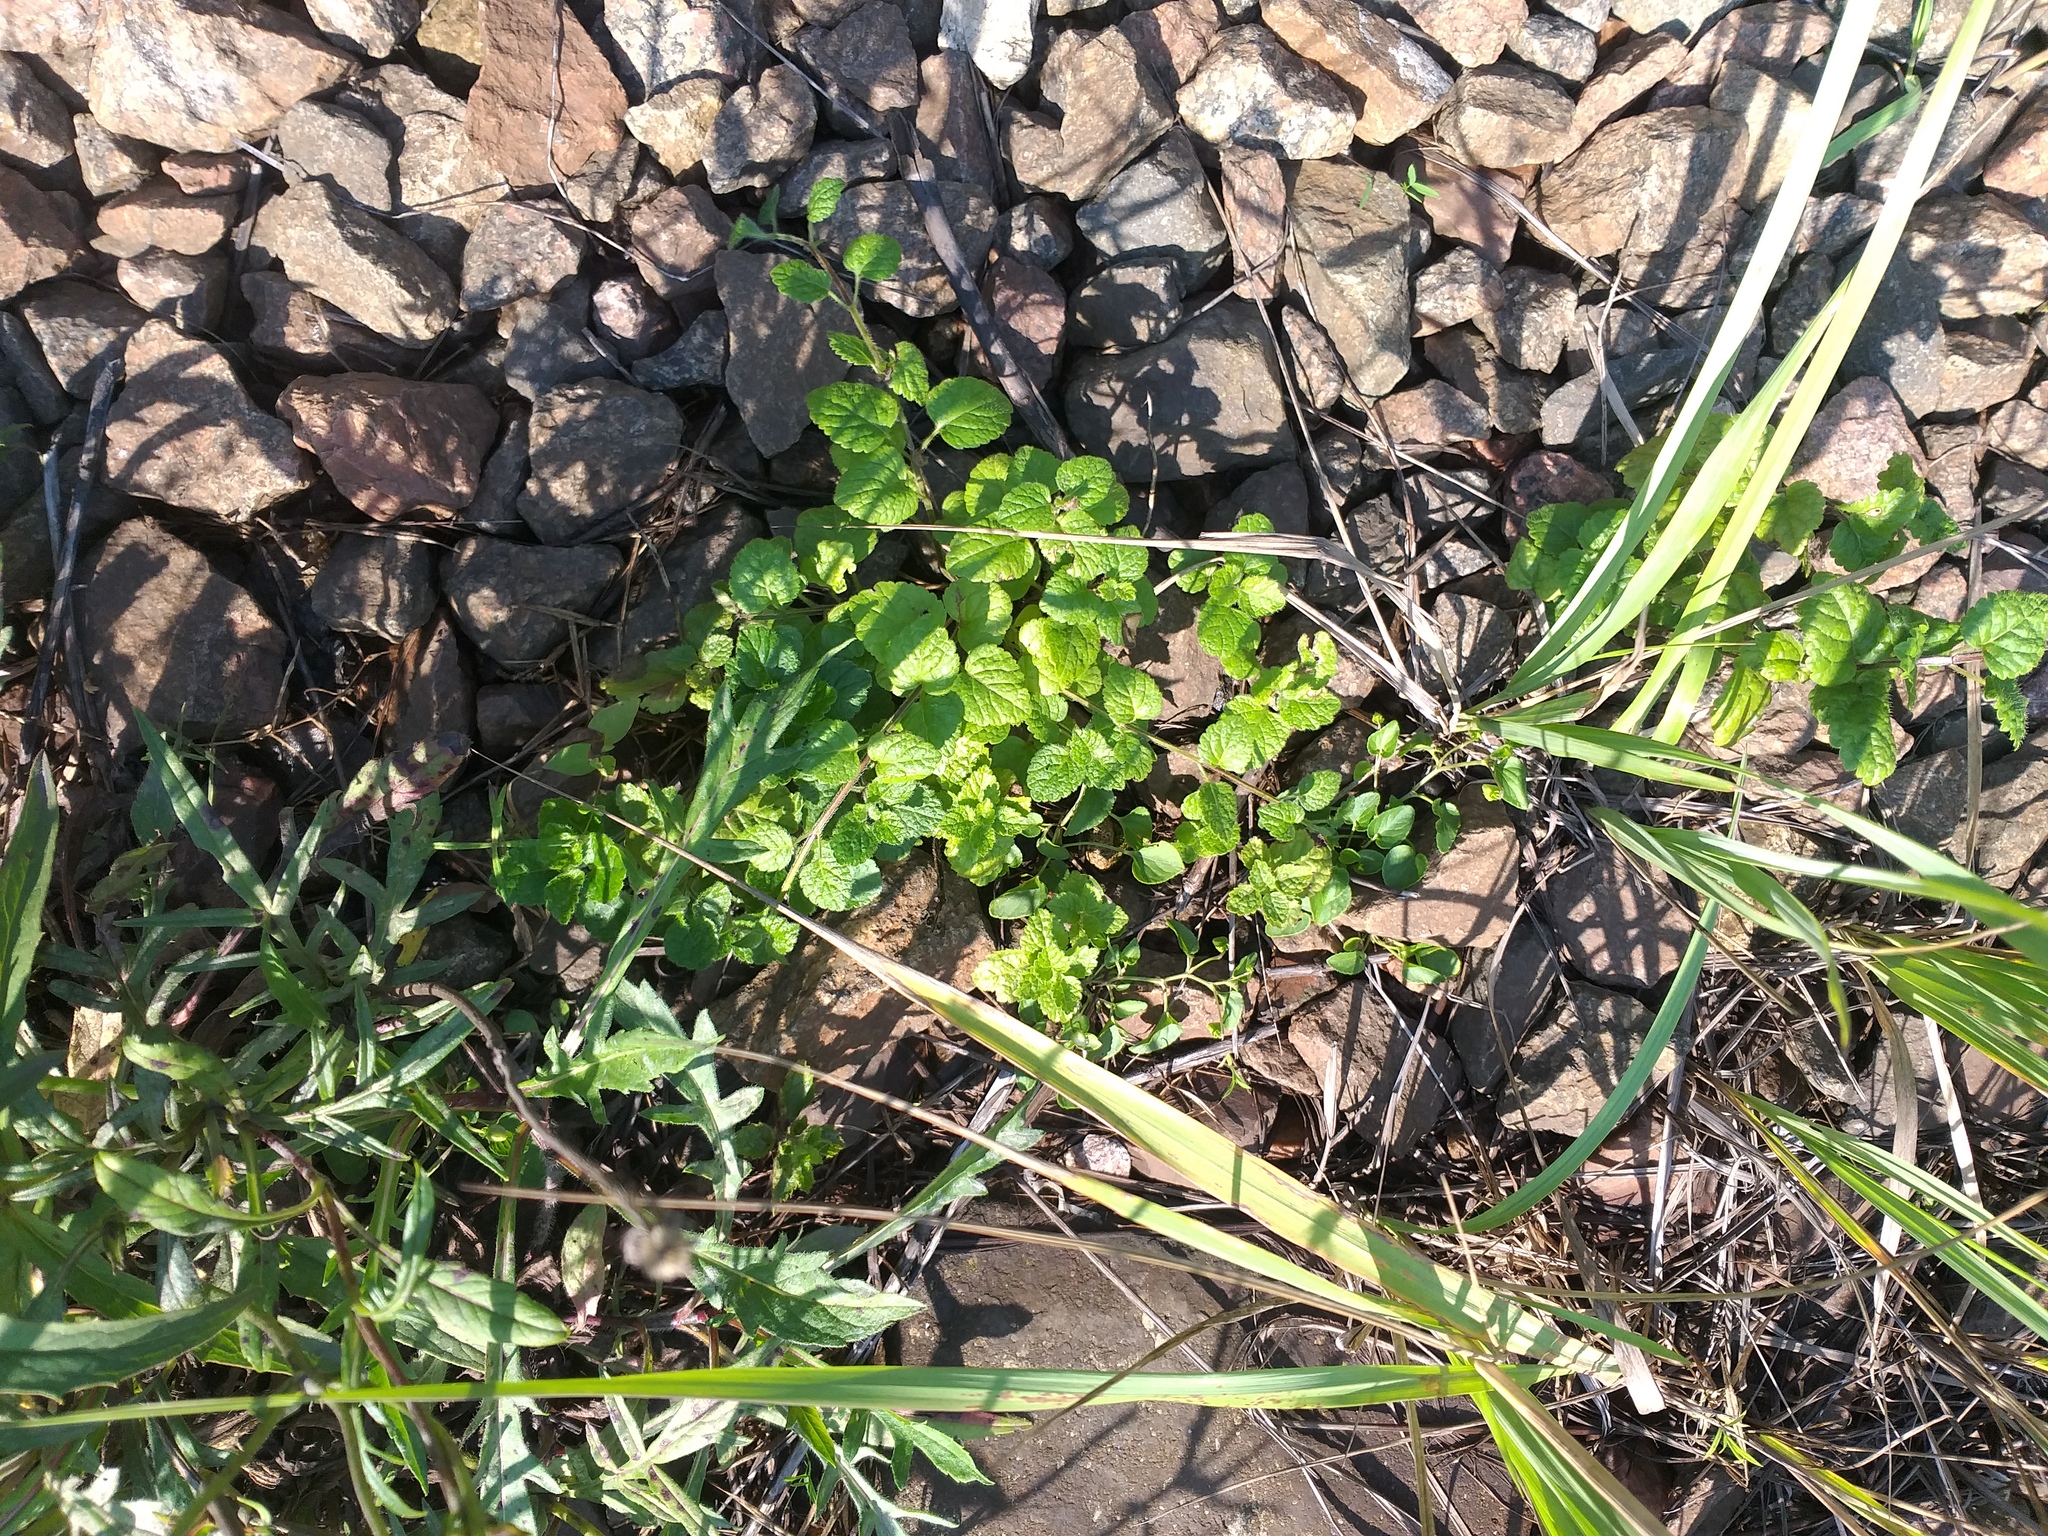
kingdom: Plantae
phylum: Tracheophyta
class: Magnoliopsida
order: Lamiales
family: Lamiaceae
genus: Lamium
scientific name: Lamium galeobdolon
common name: Yellow archangel
